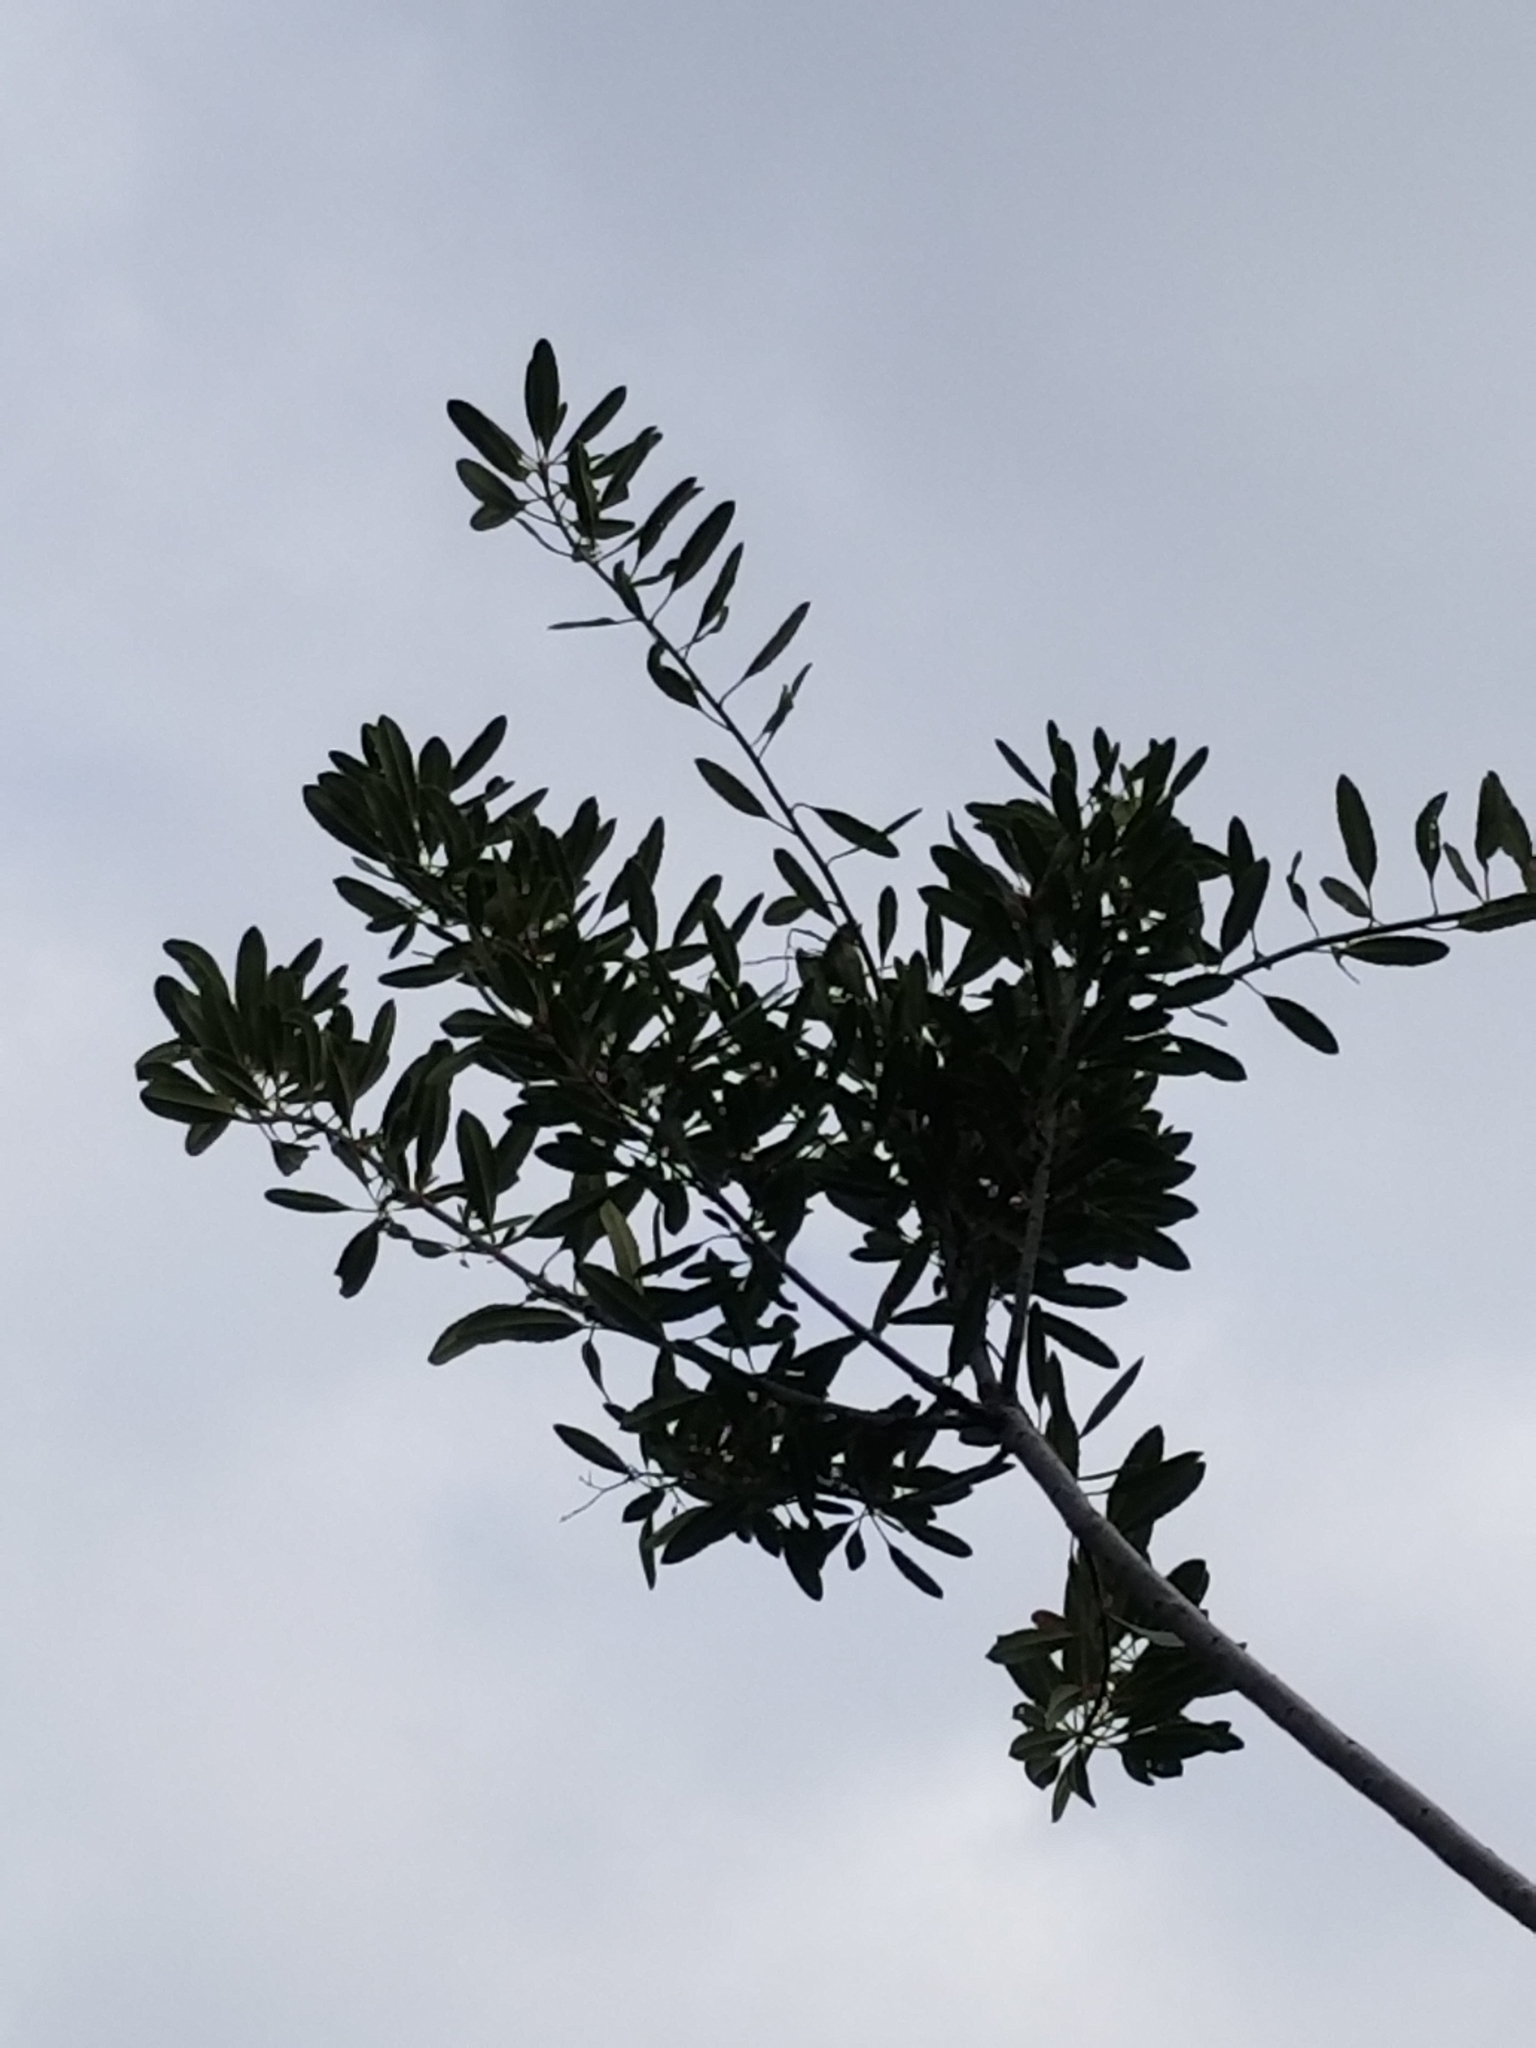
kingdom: Plantae
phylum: Tracheophyta
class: Magnoliopsida
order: Rosales
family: Rosaceae
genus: Heteromeles
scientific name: Heteromeles arbutifolia
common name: California-holly
